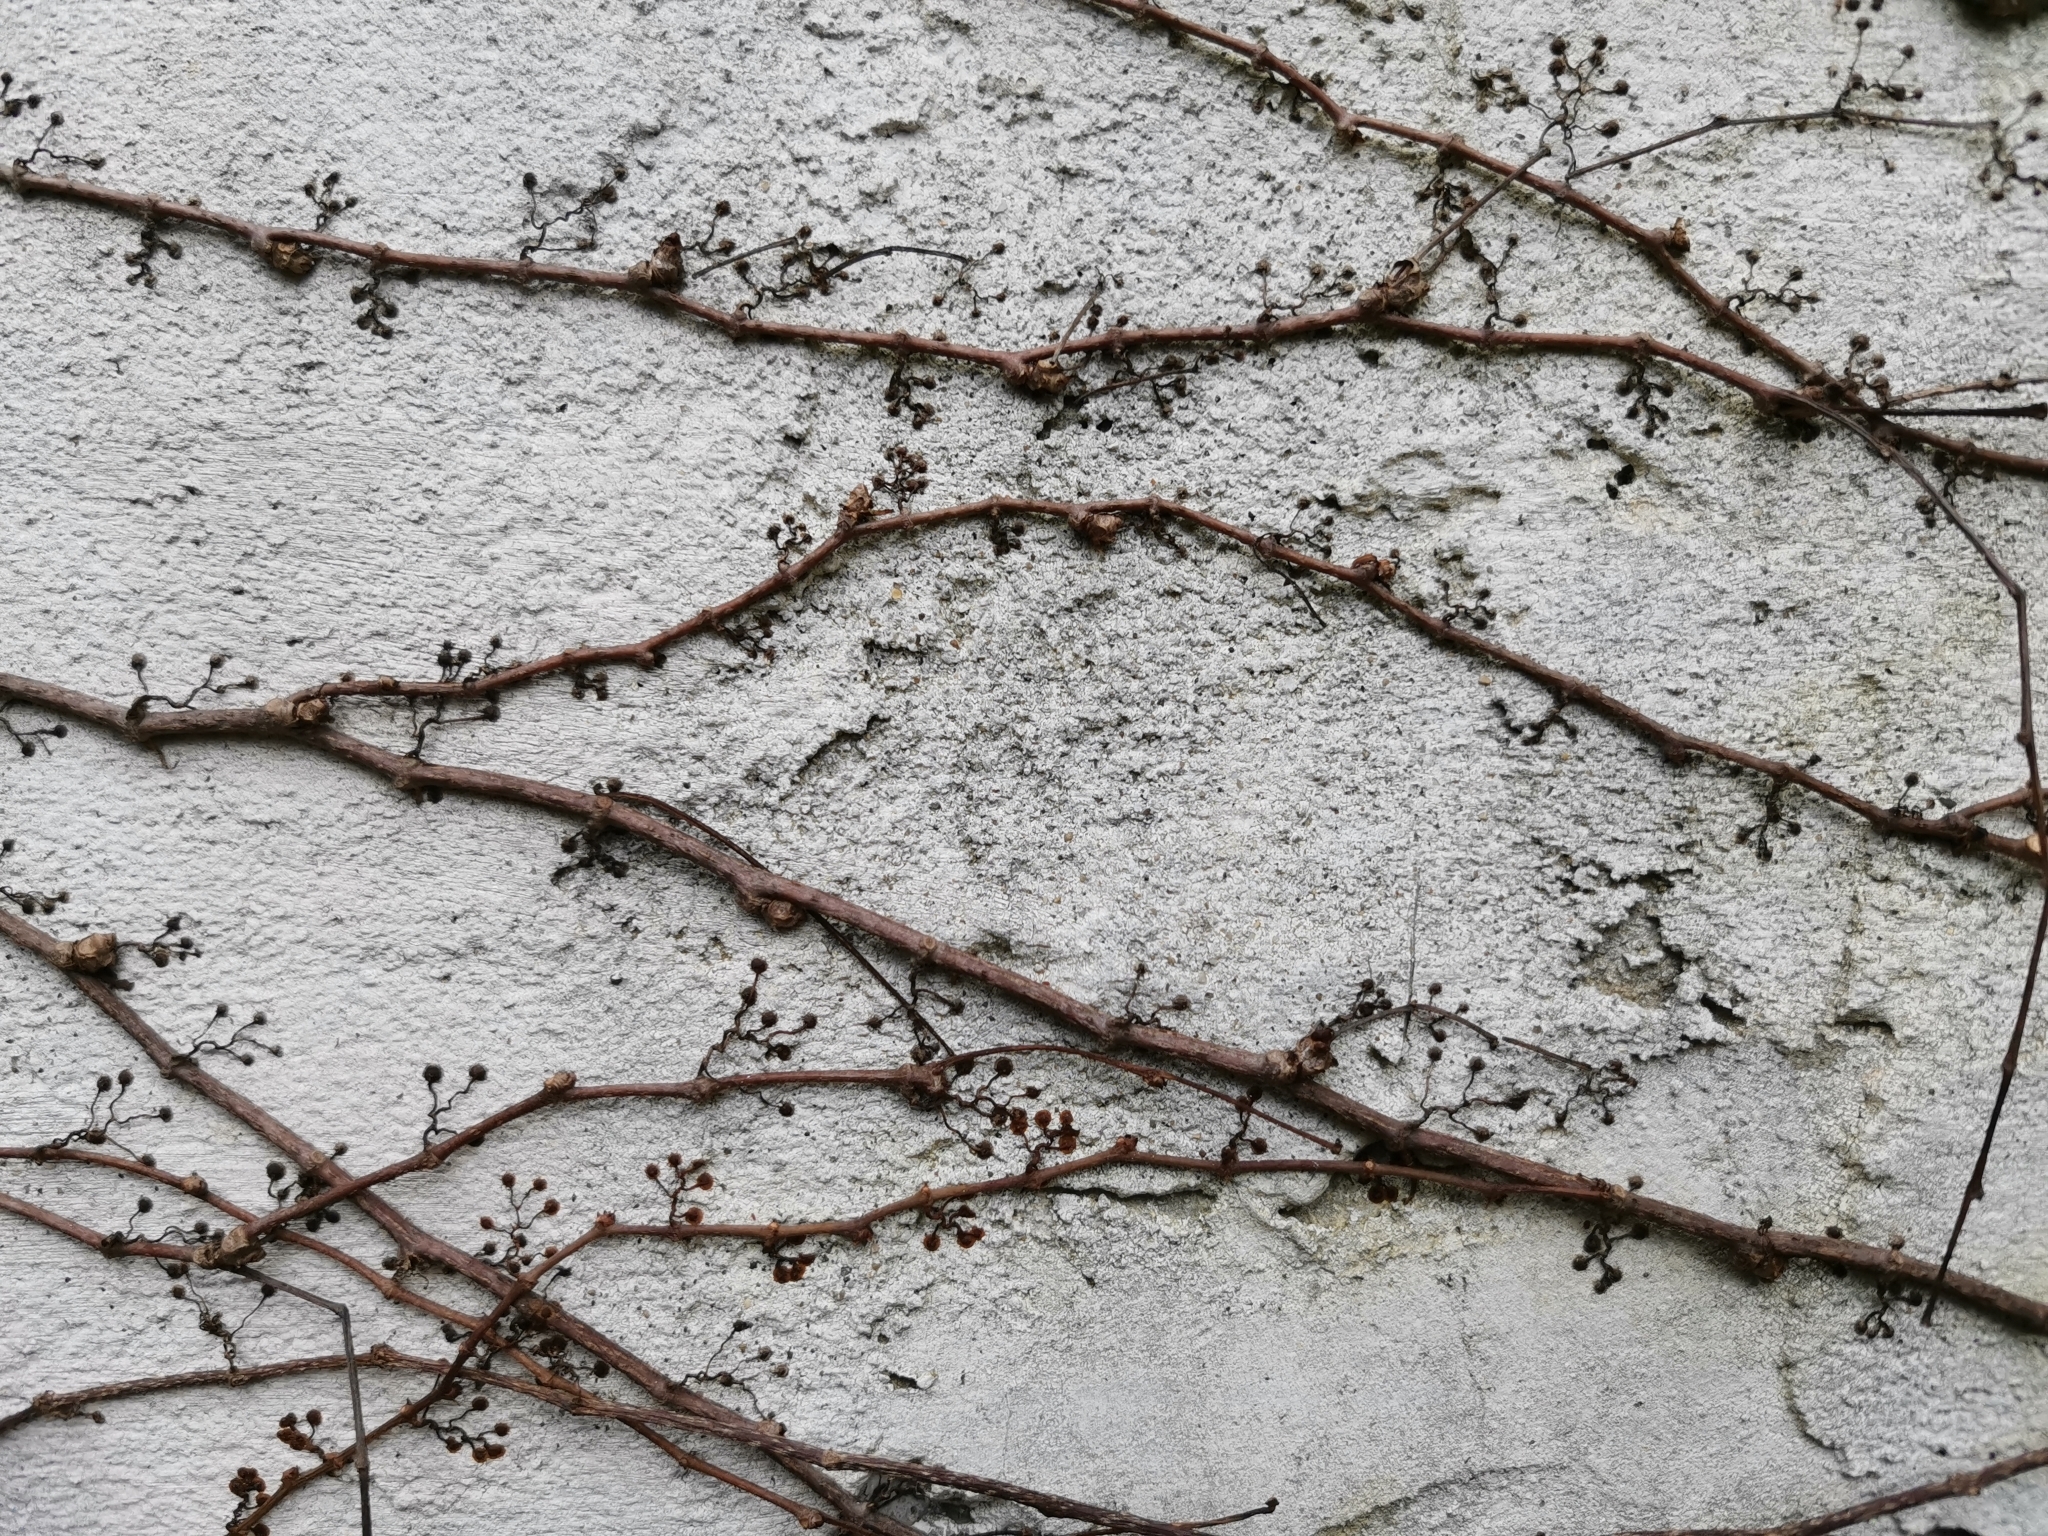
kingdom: Plantae
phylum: Tracheophyta
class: Magnoliopsida
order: Vitales
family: Vitaceae
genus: Parthenocissus
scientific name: Parthenocissus tricuspidata
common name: Boston ivy
